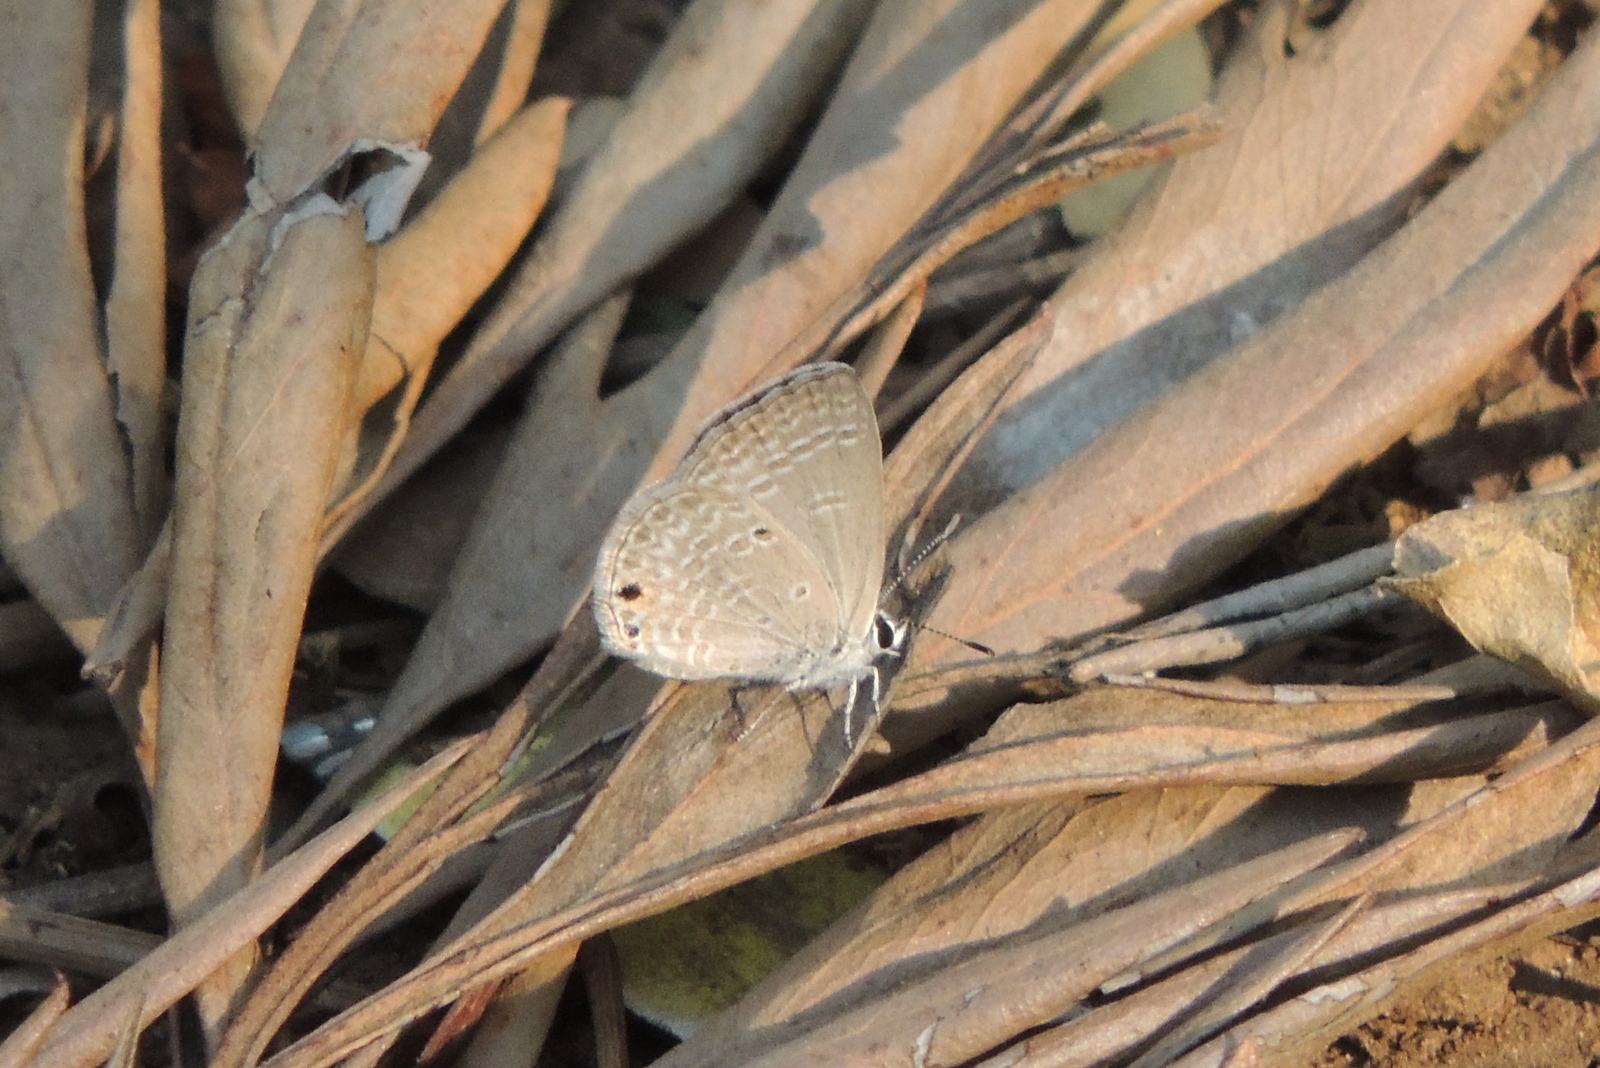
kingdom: Animalia
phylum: Arthropoda
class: Insecta
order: Lepidoptera
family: Lycaenidae
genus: Luthrodes
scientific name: Luthrodes pandava
